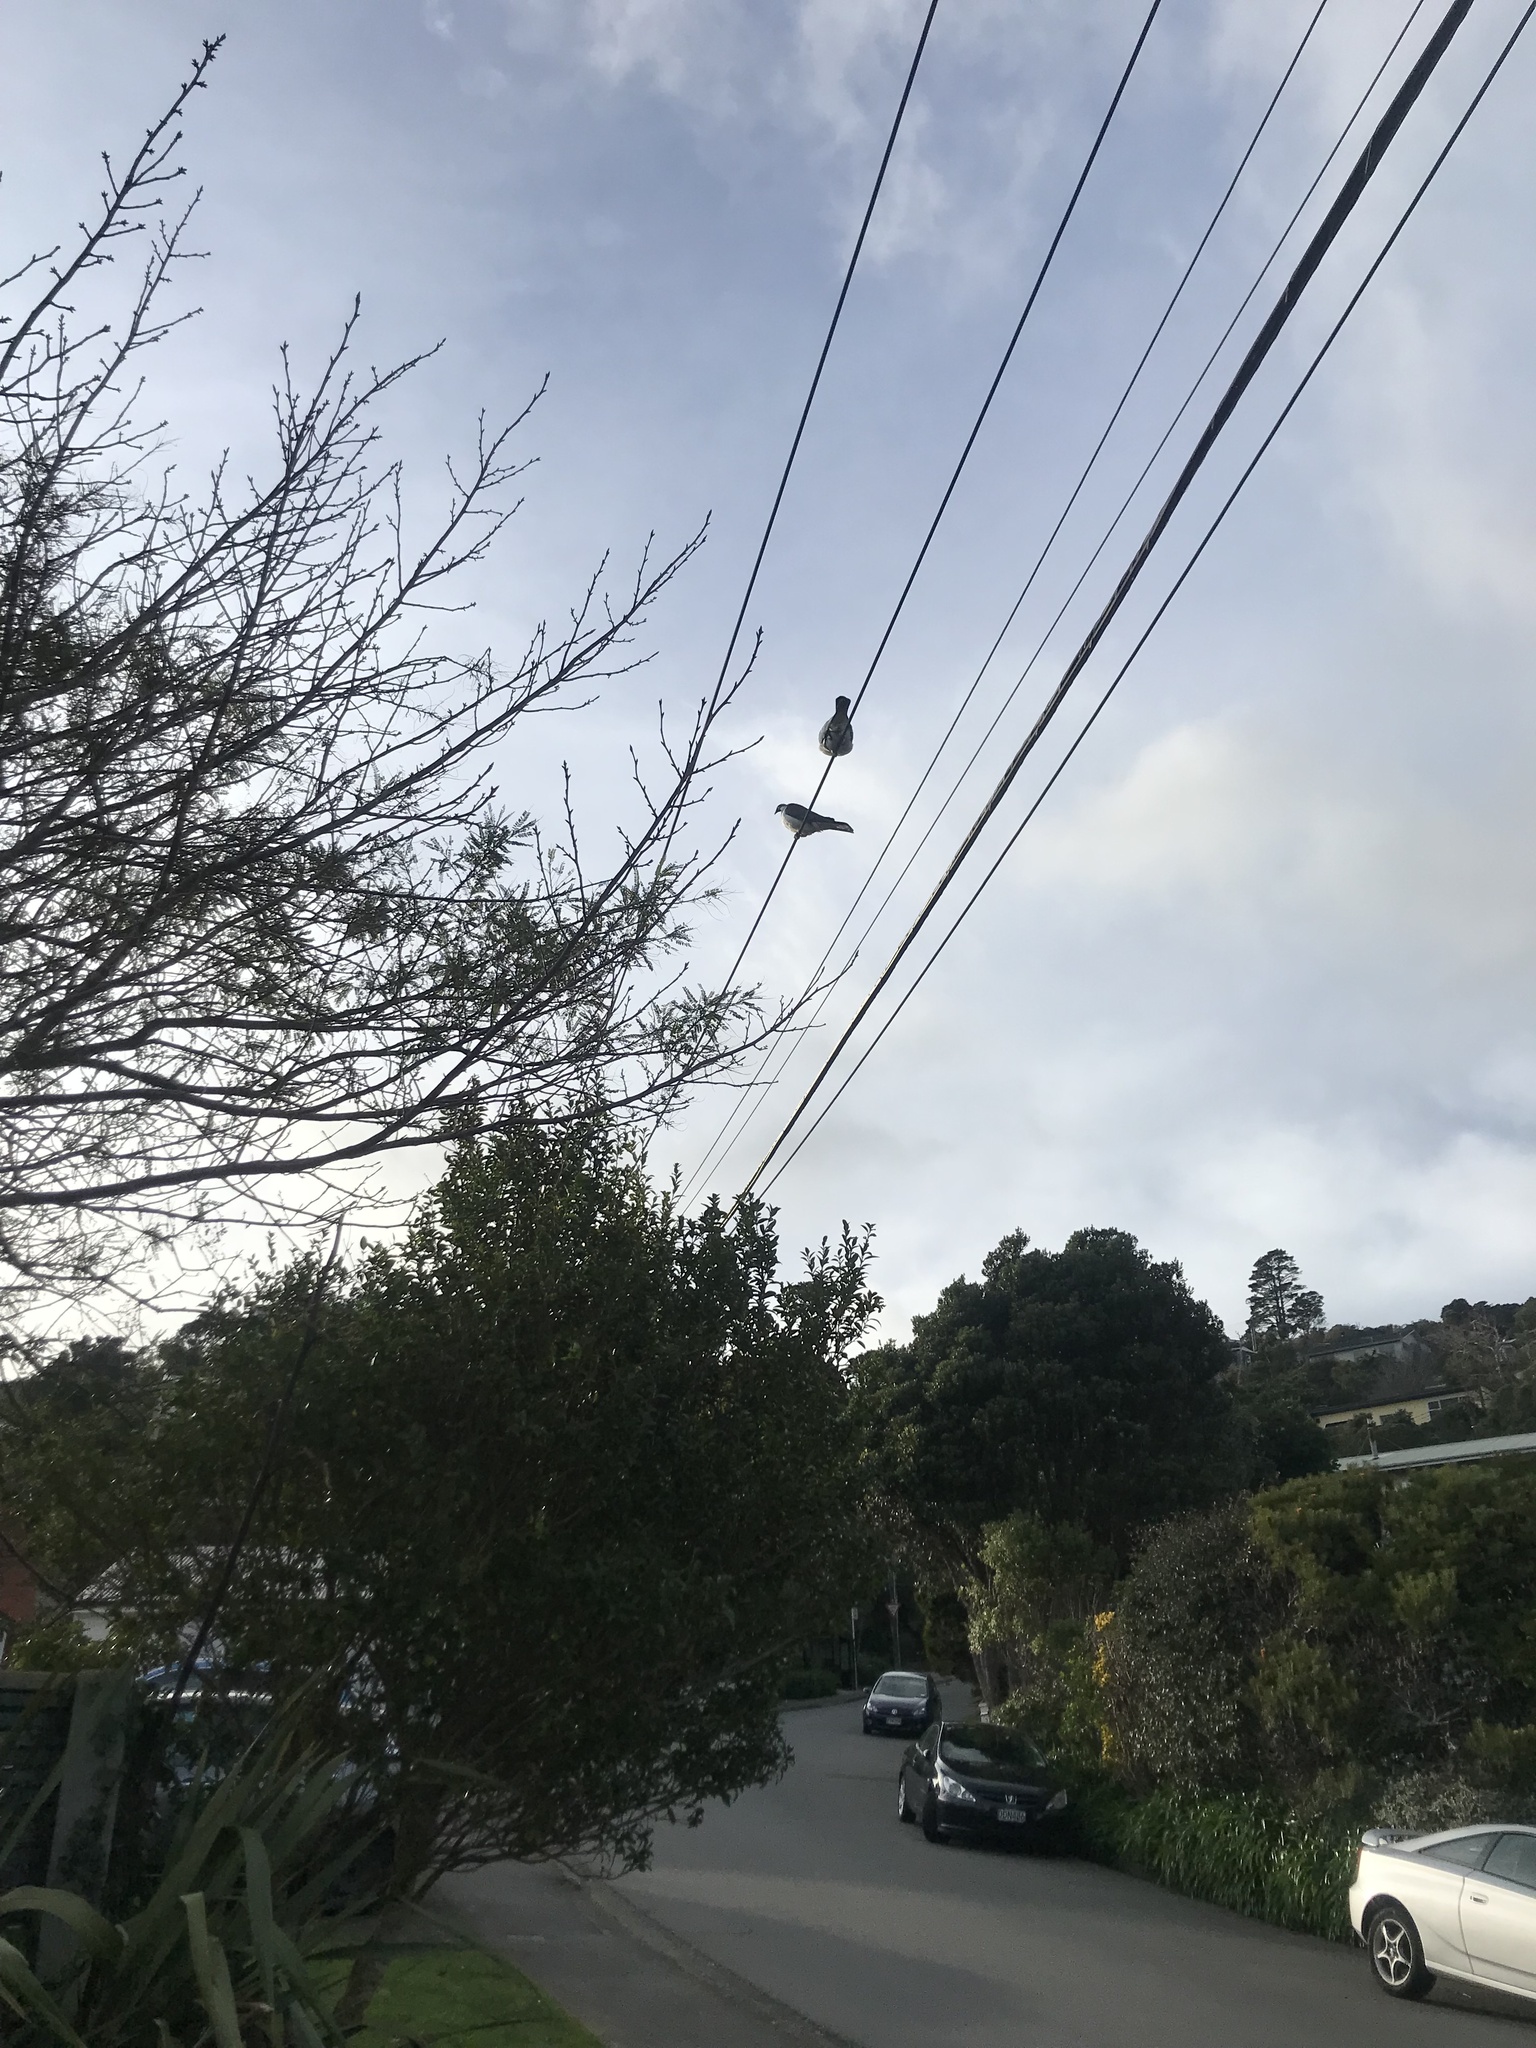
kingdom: Animalia
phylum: Chordata
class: Aves
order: Columbiformes
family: Columbidae
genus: Hemiphaga
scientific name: Hemiphaga novaeseelandiae
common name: New zealand pigeon
